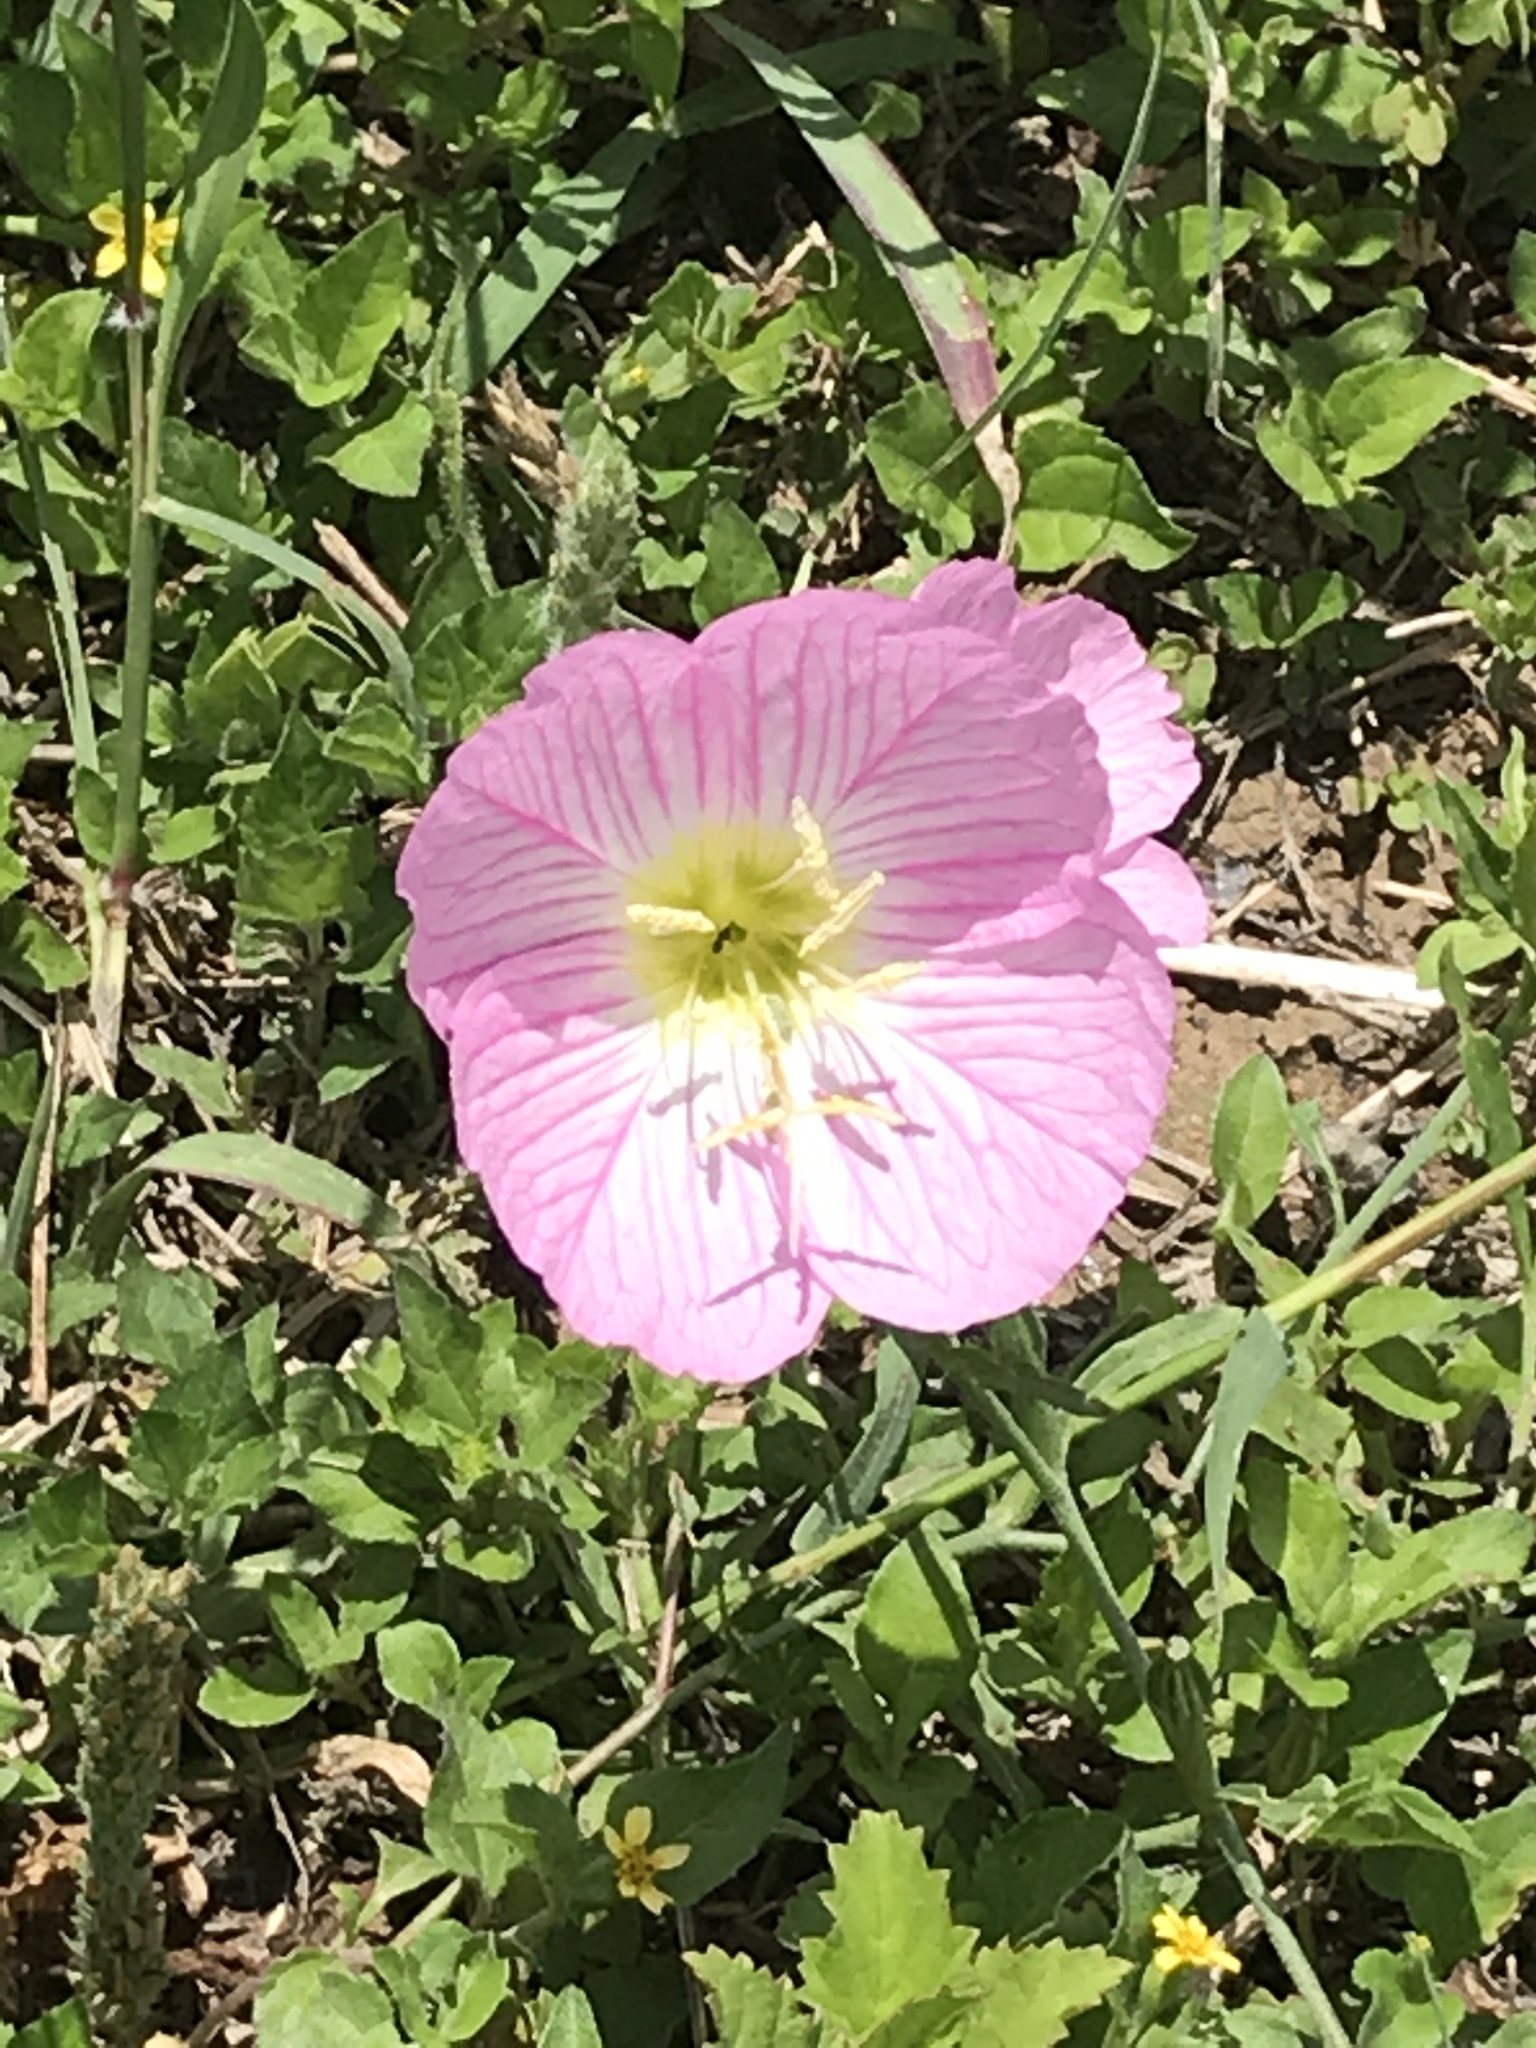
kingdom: Plantae
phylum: Tracheophyta
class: Magnoliopsida
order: Myrtales
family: Onagraceae
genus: Oenothera
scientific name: Oenothera speciosa
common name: White evening-primrose
